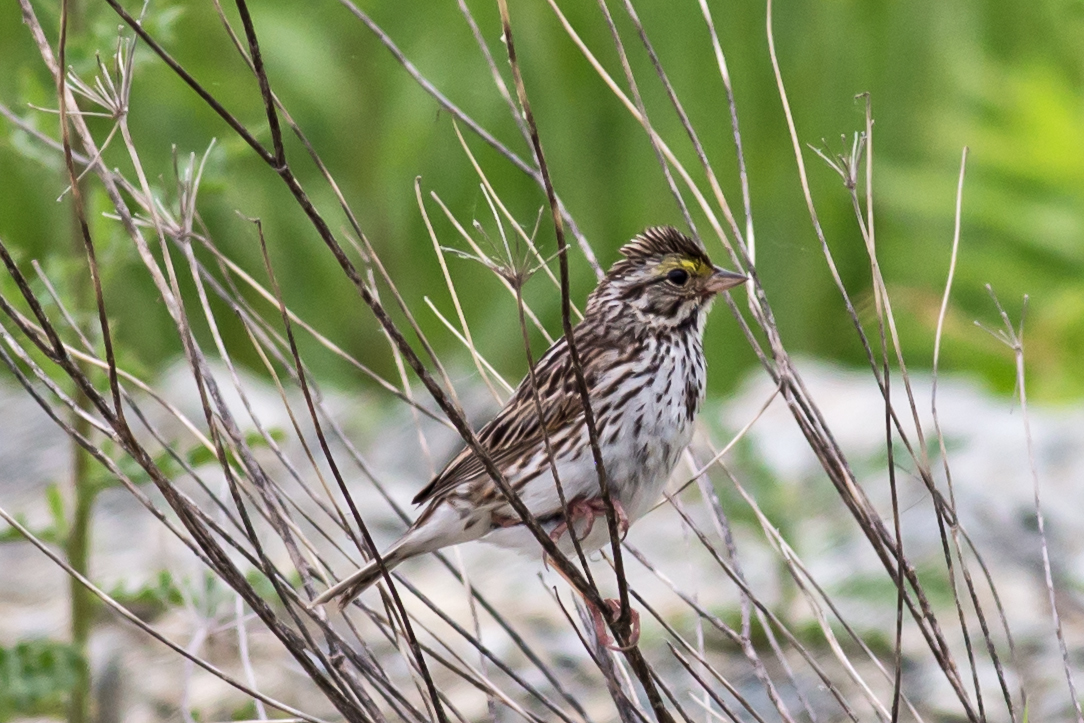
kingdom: Animalia
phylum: Chordata
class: Aves
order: Passeriformes
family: Passerellidae
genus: Passerculus
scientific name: Passerculus sandwichensis
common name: Savannah sparrow
